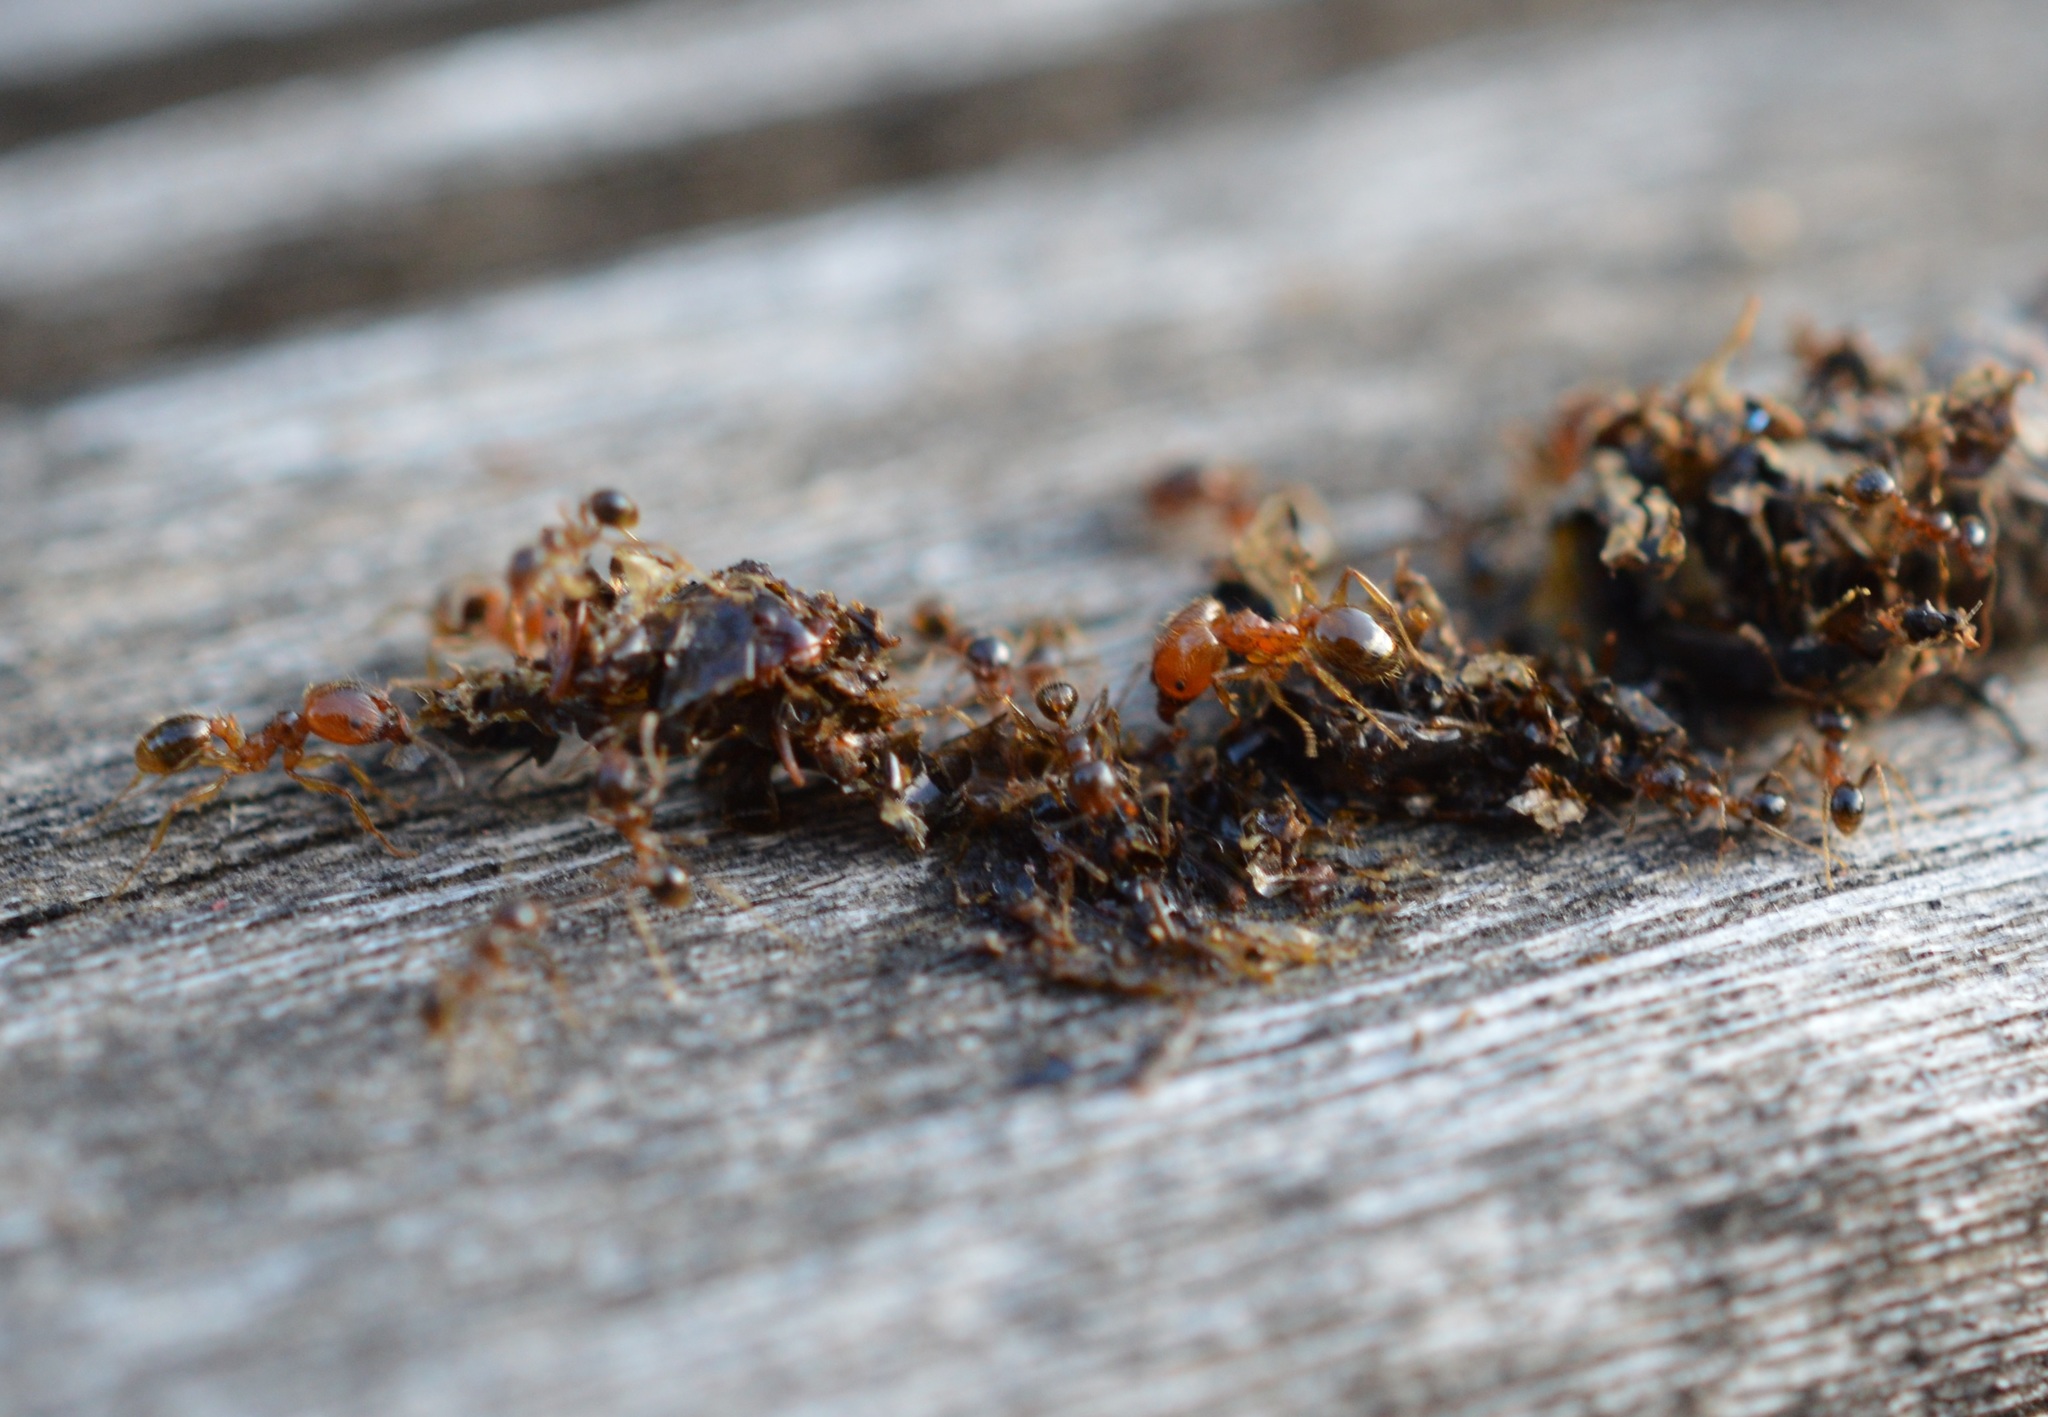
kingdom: Animalia
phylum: Arthropoda
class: Insecta
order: Hymenoptera
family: Formicidae
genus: Pheidole
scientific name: Pheidole pallidula
